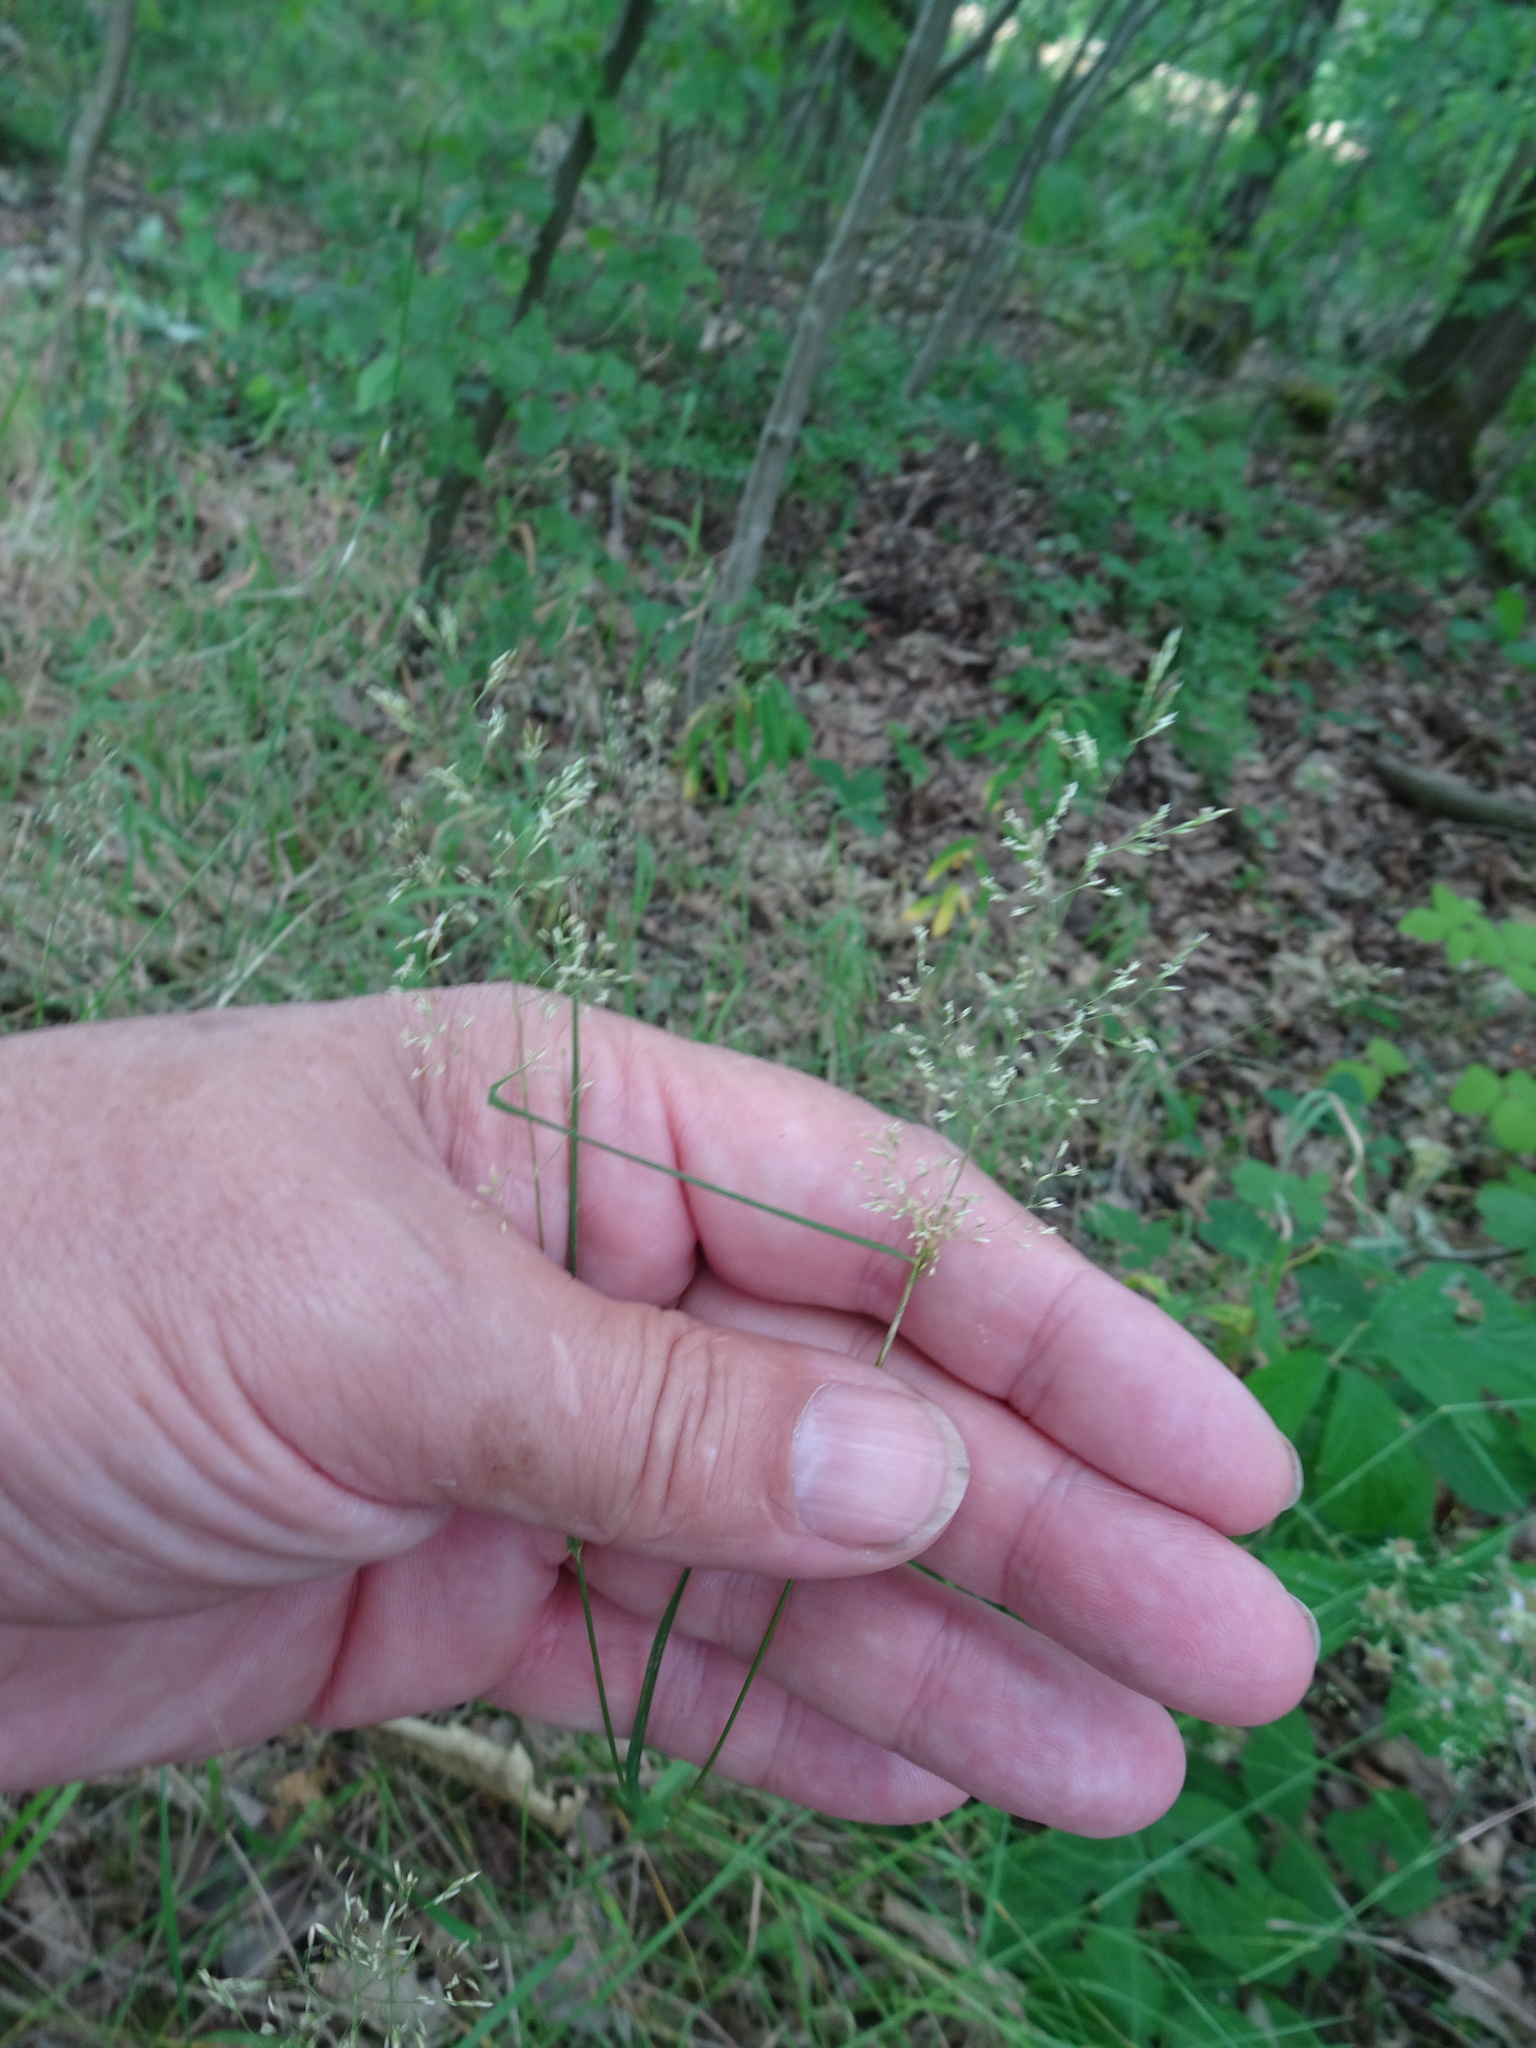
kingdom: Plantae
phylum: Tracheophyta
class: Liliopsida
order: Poales
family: Poaceae
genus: Poa
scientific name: Poa nemoralis
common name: Wood bluegrass
